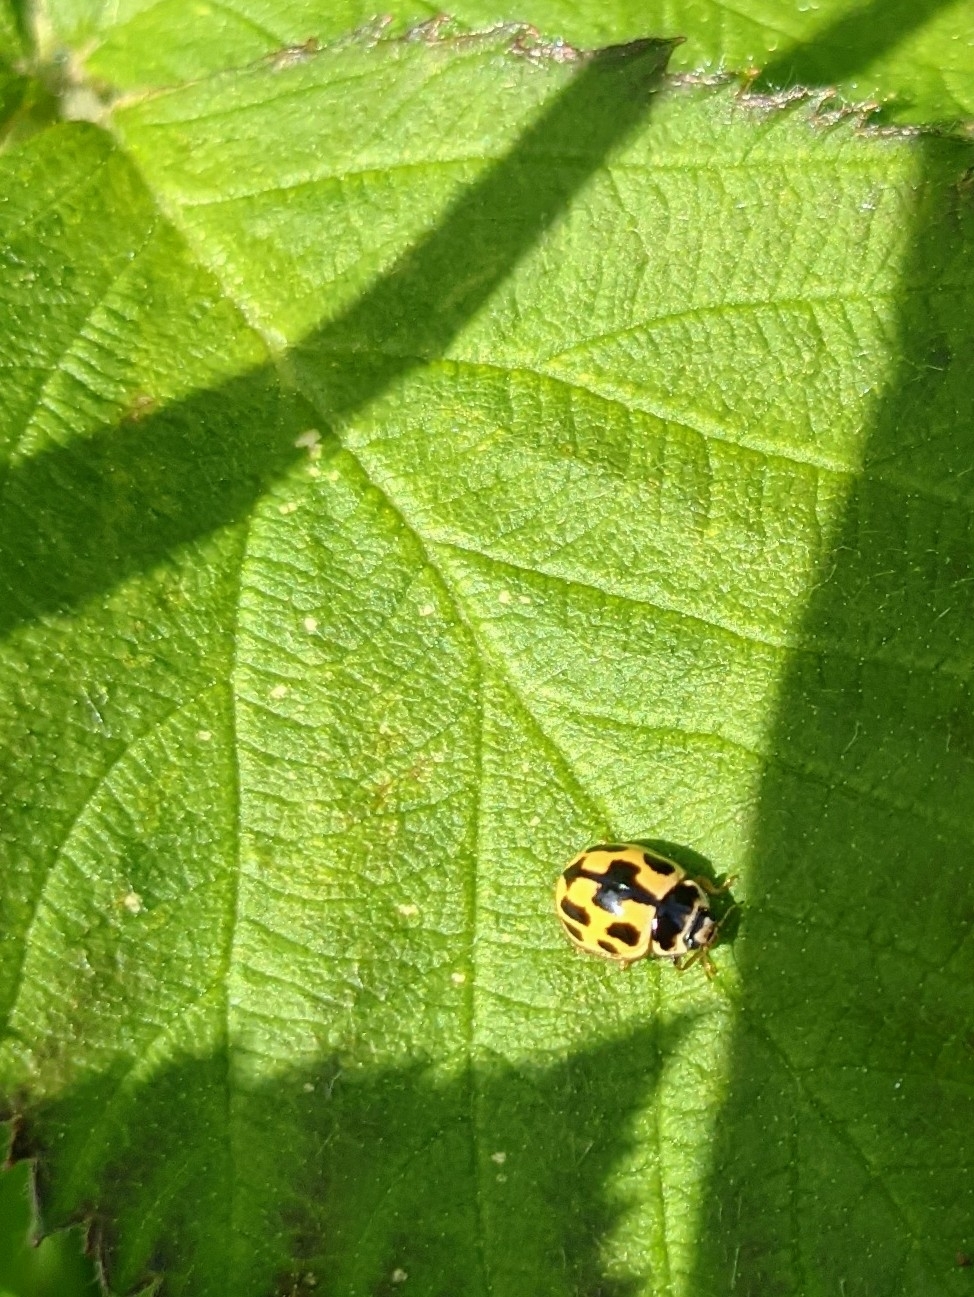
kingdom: Animalia
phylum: Arthropoda
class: Insecta
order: Coleoptera
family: Coccinellidae
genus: Propylaea
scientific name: Propylaea quatuordecimpunctata
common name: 14-spotted ladybird beetle
